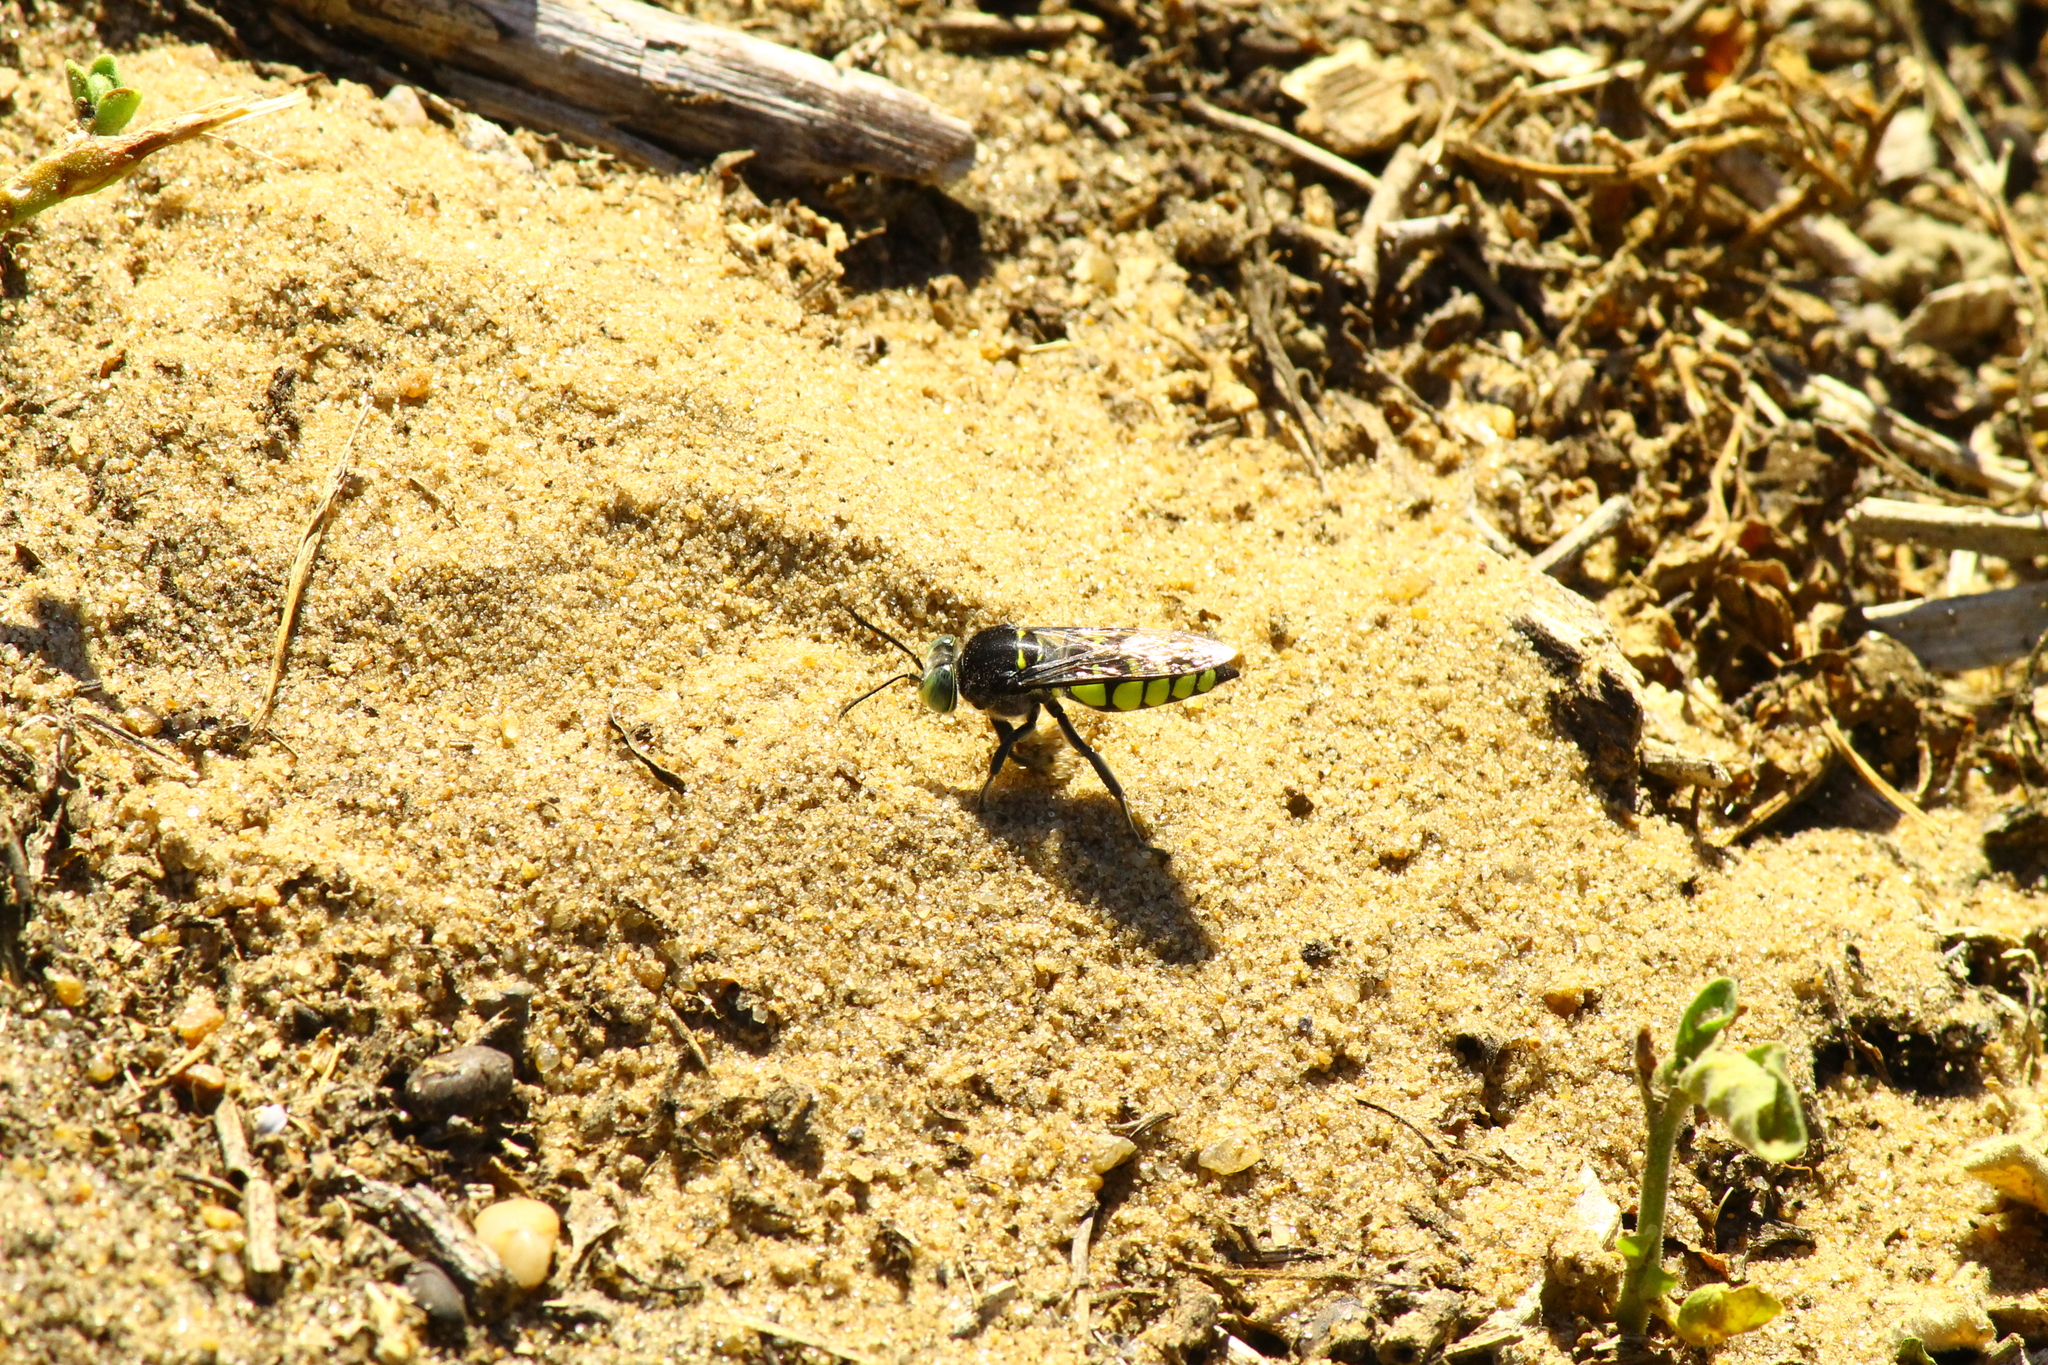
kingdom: Animalia
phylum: Arthropoda
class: Insecta
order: Hymenoptera
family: Crabronidae
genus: Stictia
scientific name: Stictia flexuosa
